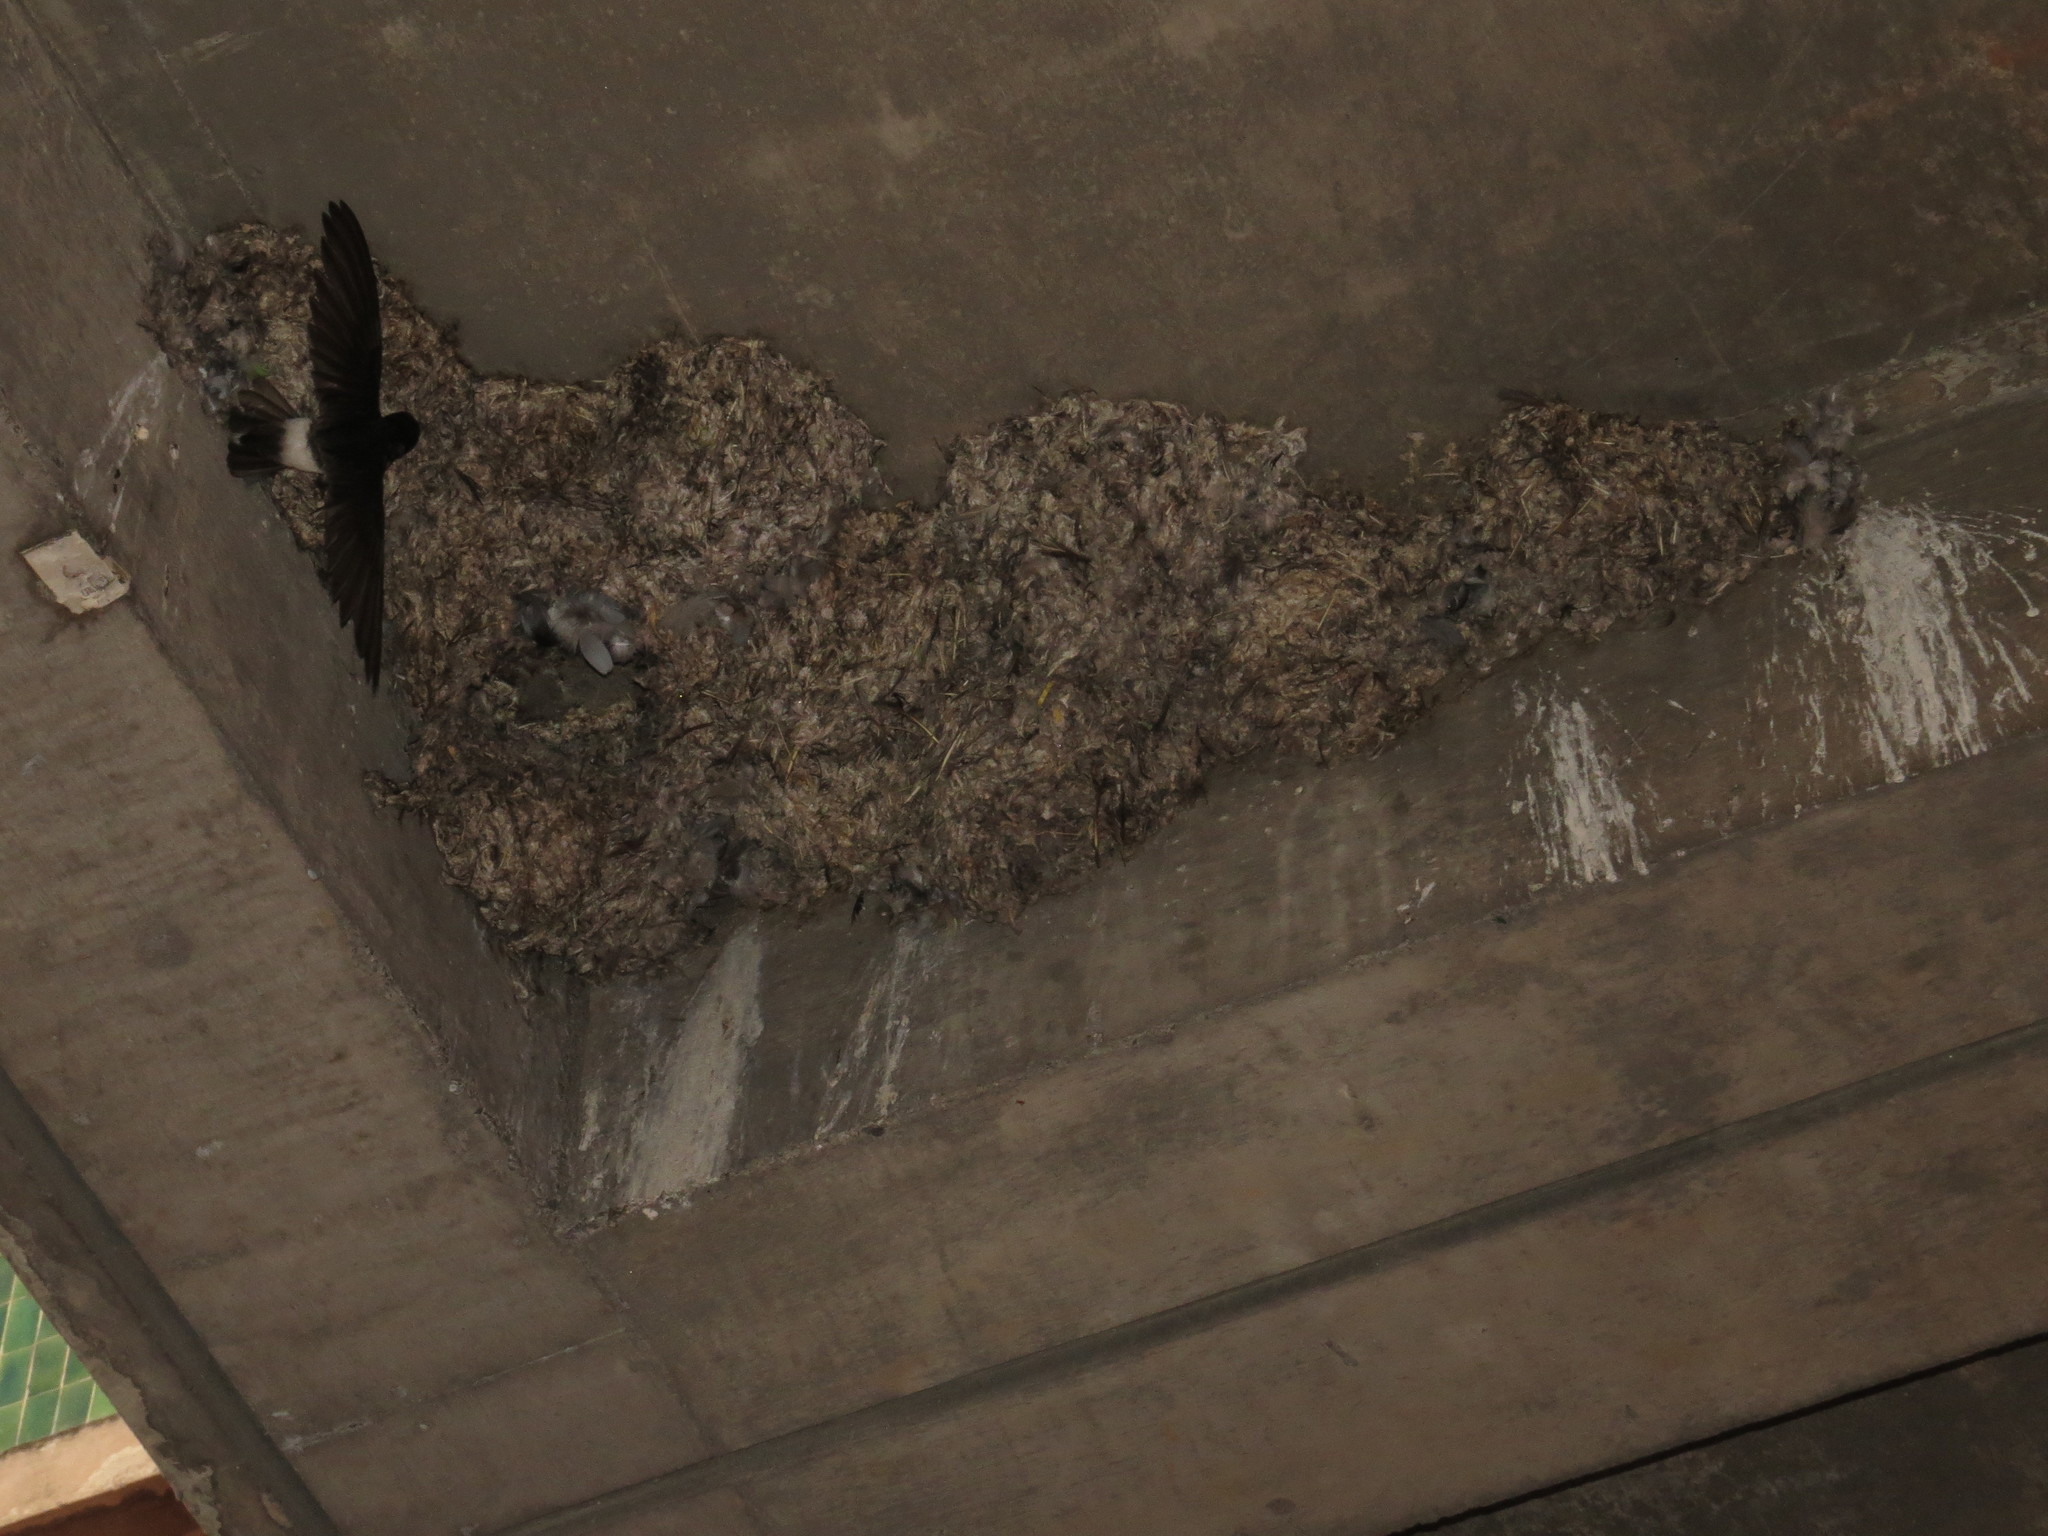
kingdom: Animalia
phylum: Chordata
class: Aves
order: Apodiformes
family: Apodidae
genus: Apus
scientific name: Apus affinis
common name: Little swift
